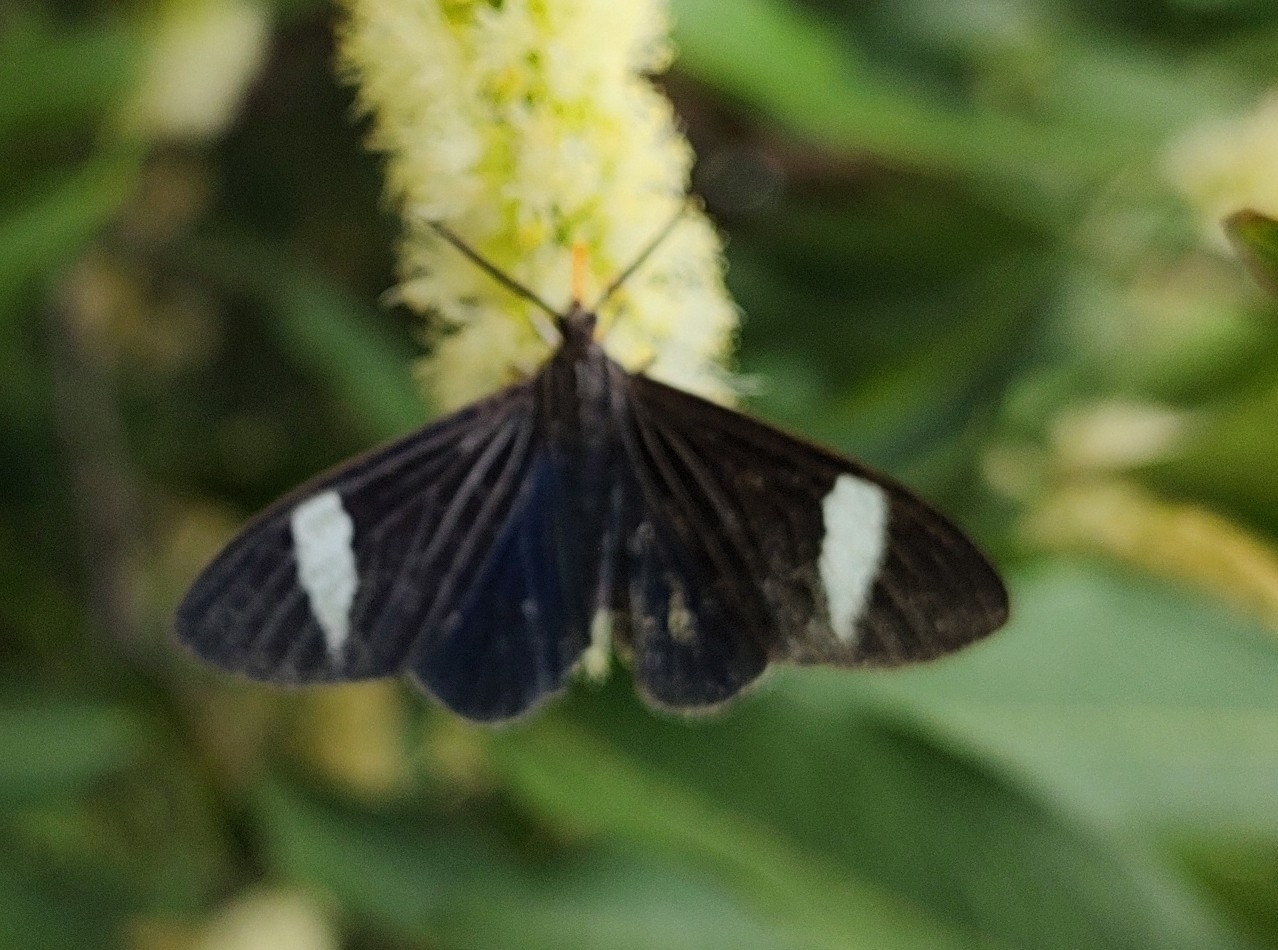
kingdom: Animalia
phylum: Arthropoda
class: Insecta
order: Lepidoptera
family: Erebidae
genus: Ctenucha
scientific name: Ctenucha braganza
